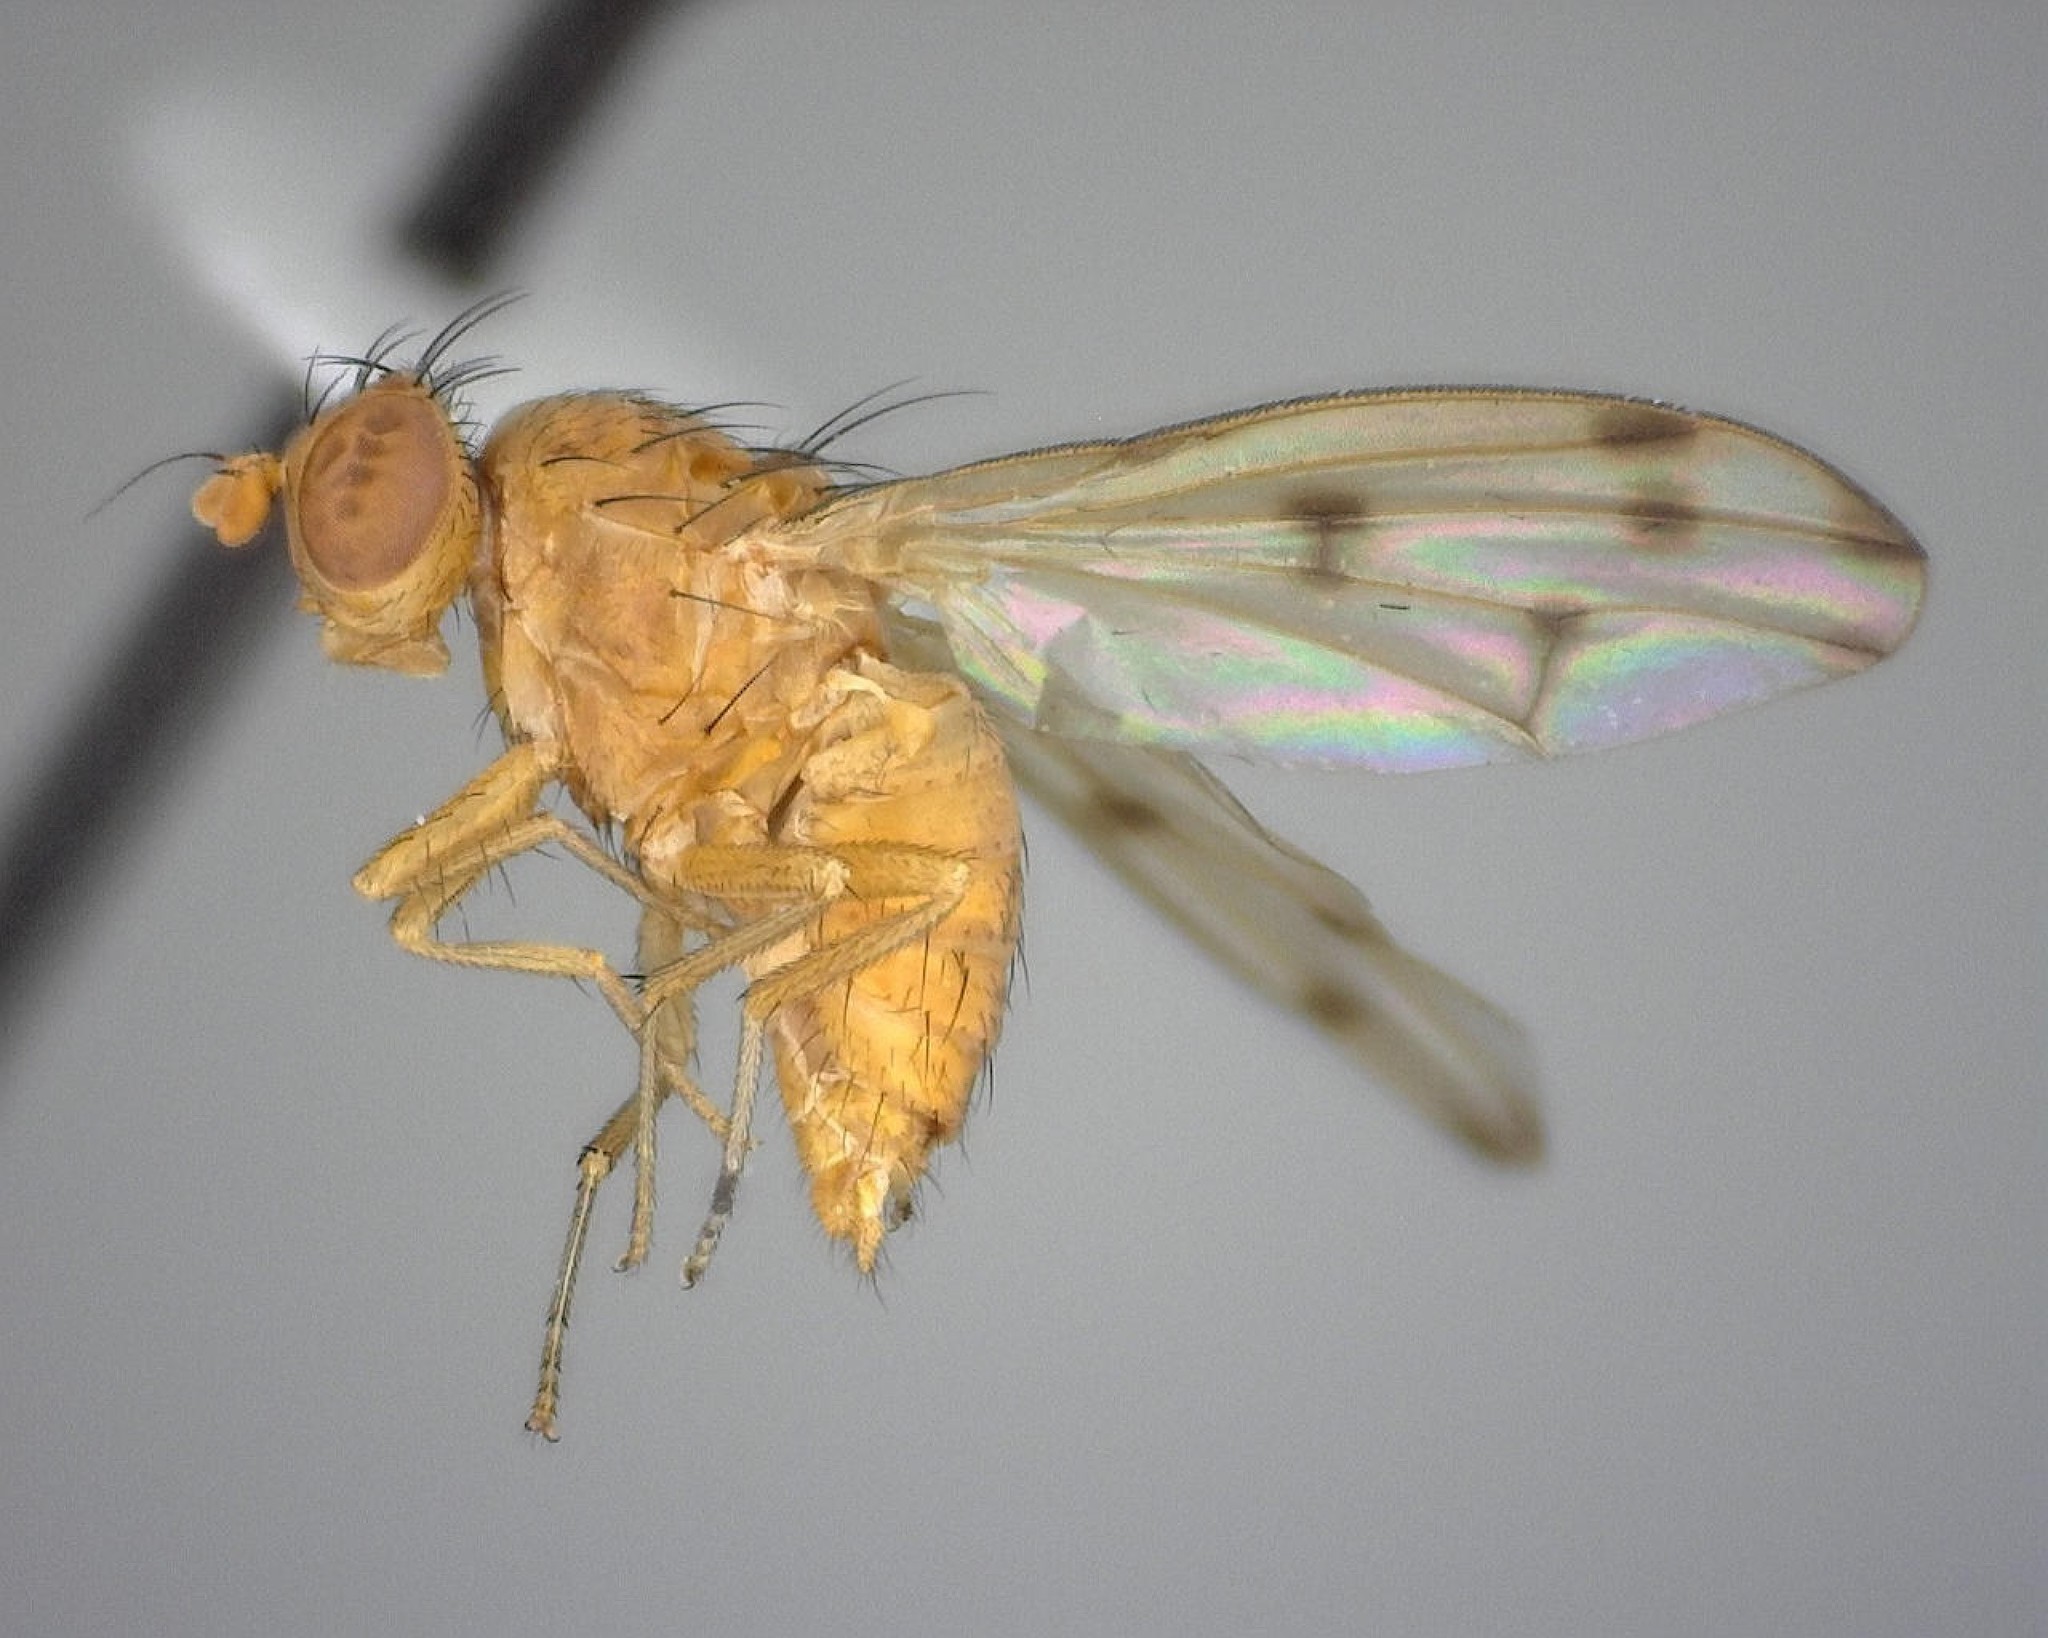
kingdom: Animalia
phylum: Arthropoda
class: Insecta
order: Diptera
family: Lauxaniidae
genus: Homoneura
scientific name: Homoneura disjuncta
